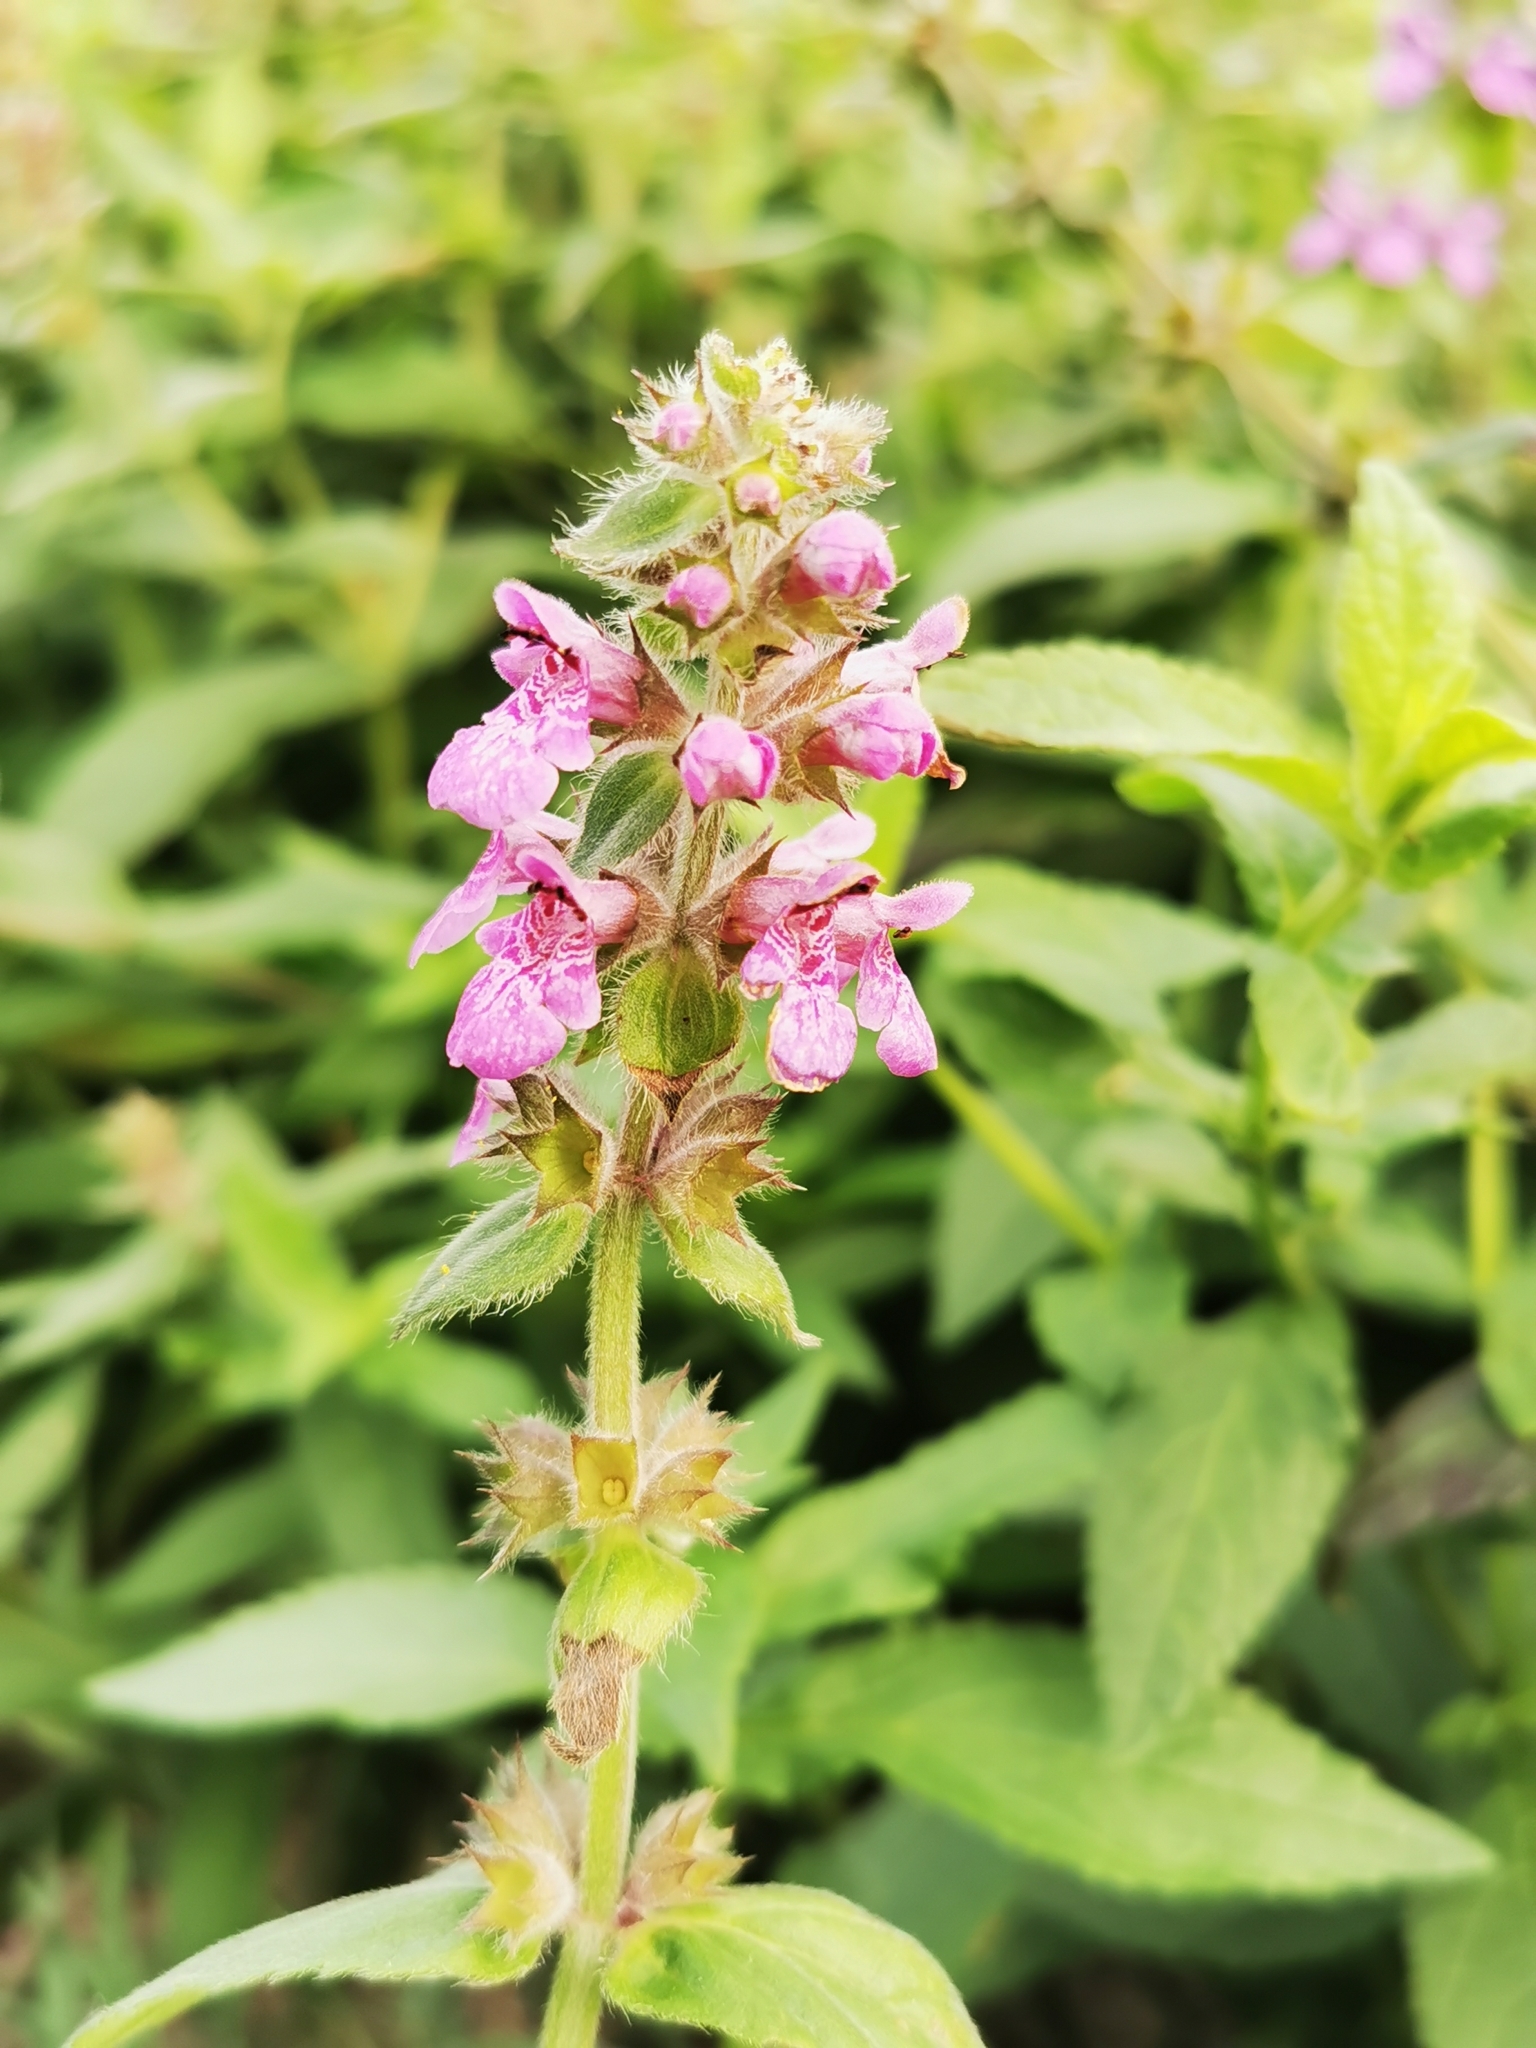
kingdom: Plantae
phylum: Tracheophyta
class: Magnoliopsida
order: Lamiales
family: Lamiaceae
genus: Stachys
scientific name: Stachys palustris
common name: Marsh woundwort
